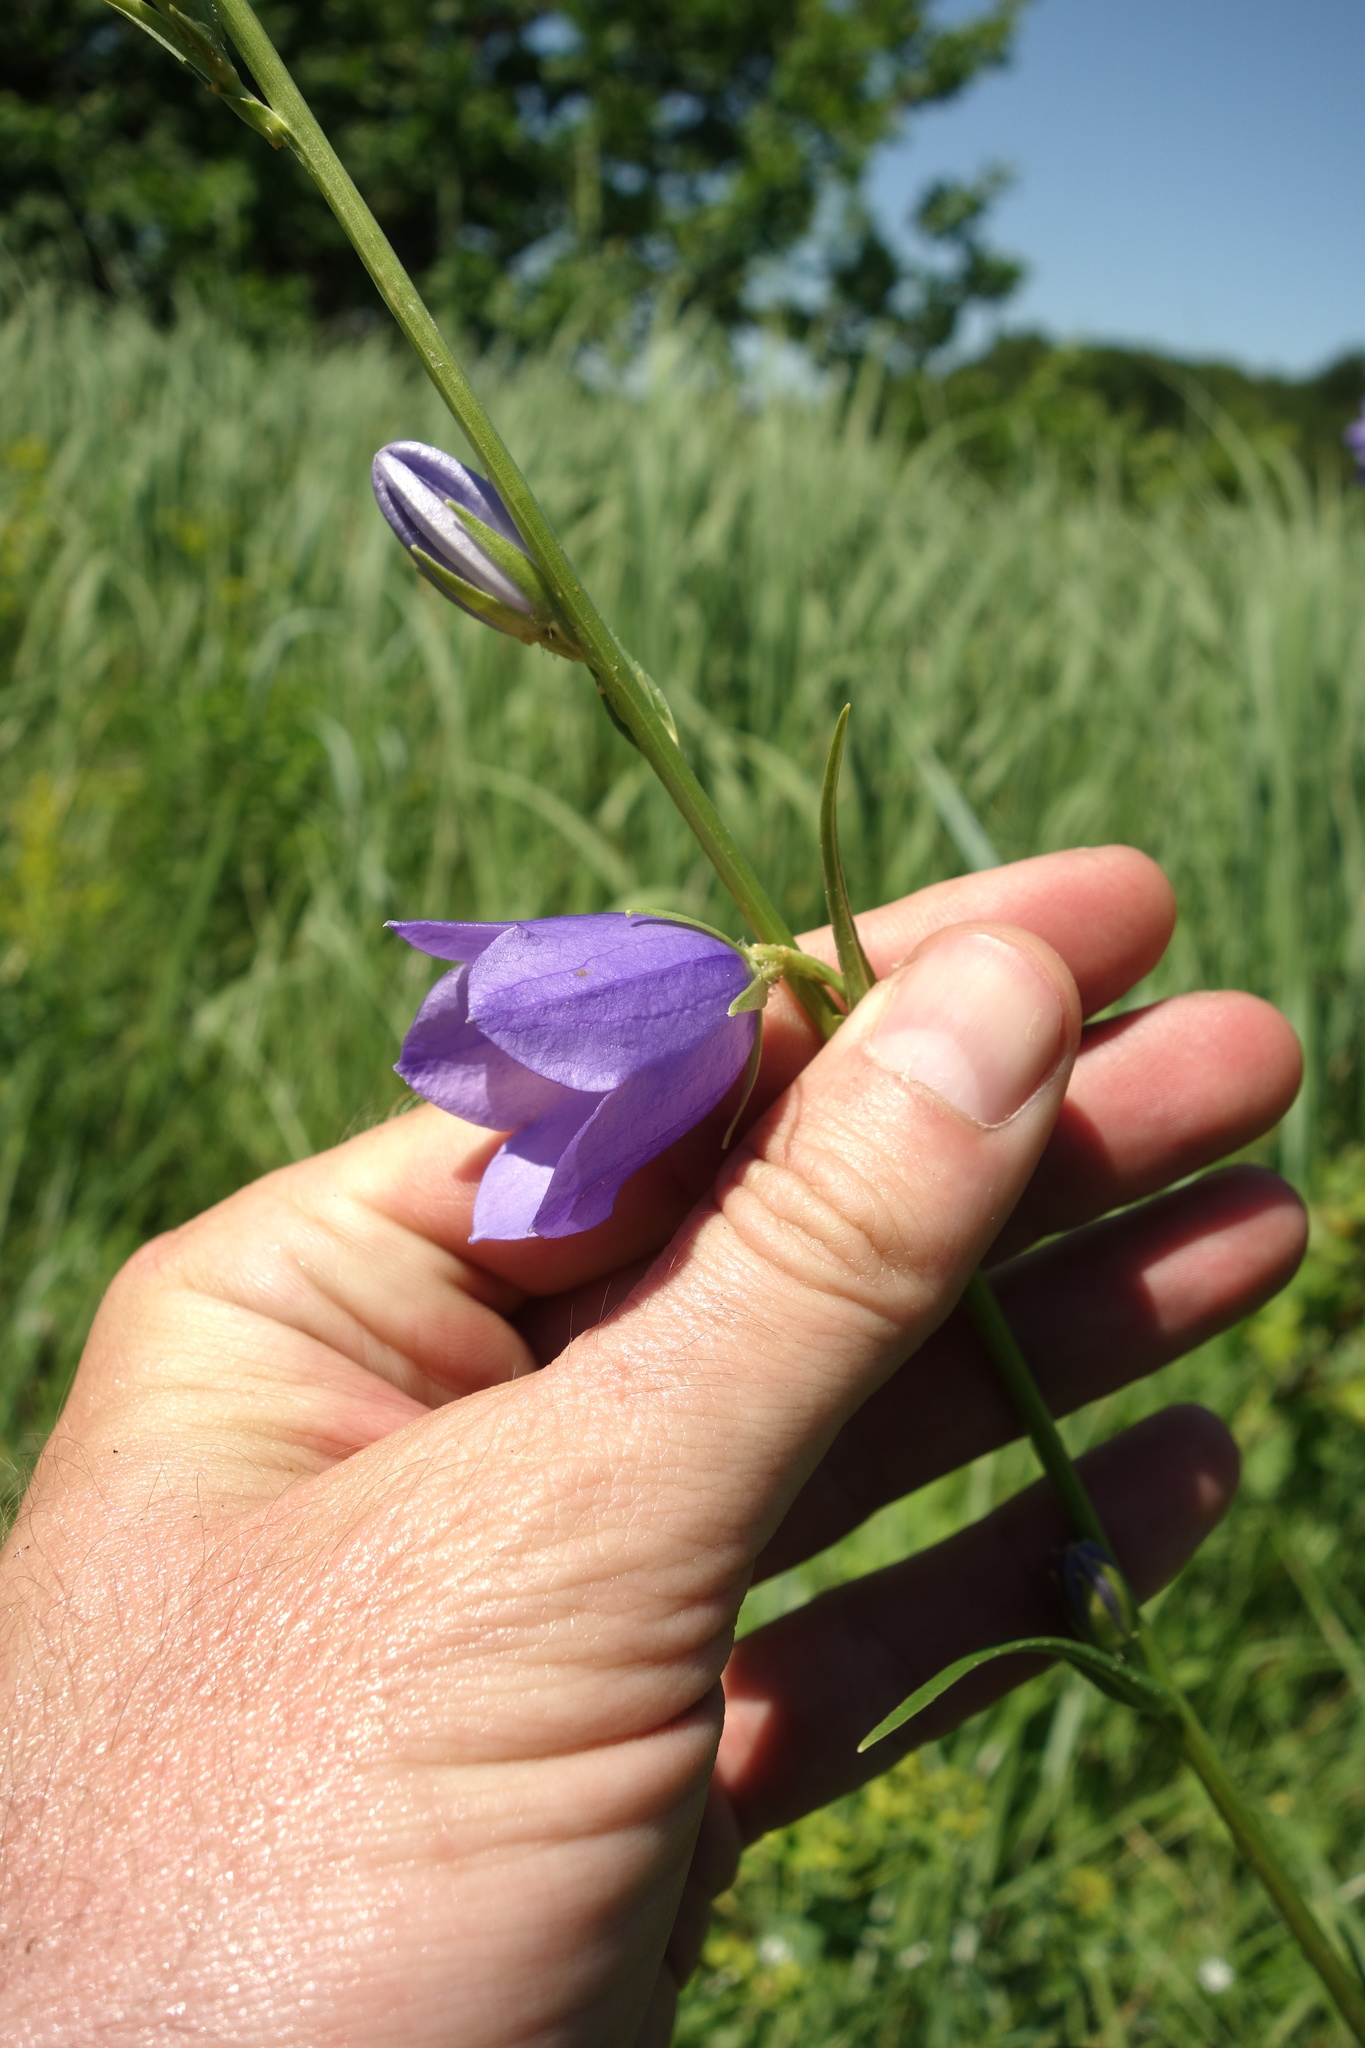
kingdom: Plantae
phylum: Tracheophyta
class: Magnoliopsida
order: Asterales
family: Campanulaceae
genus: Campanula
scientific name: Campanula persicifolia
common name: Peach-leaved bellflower
